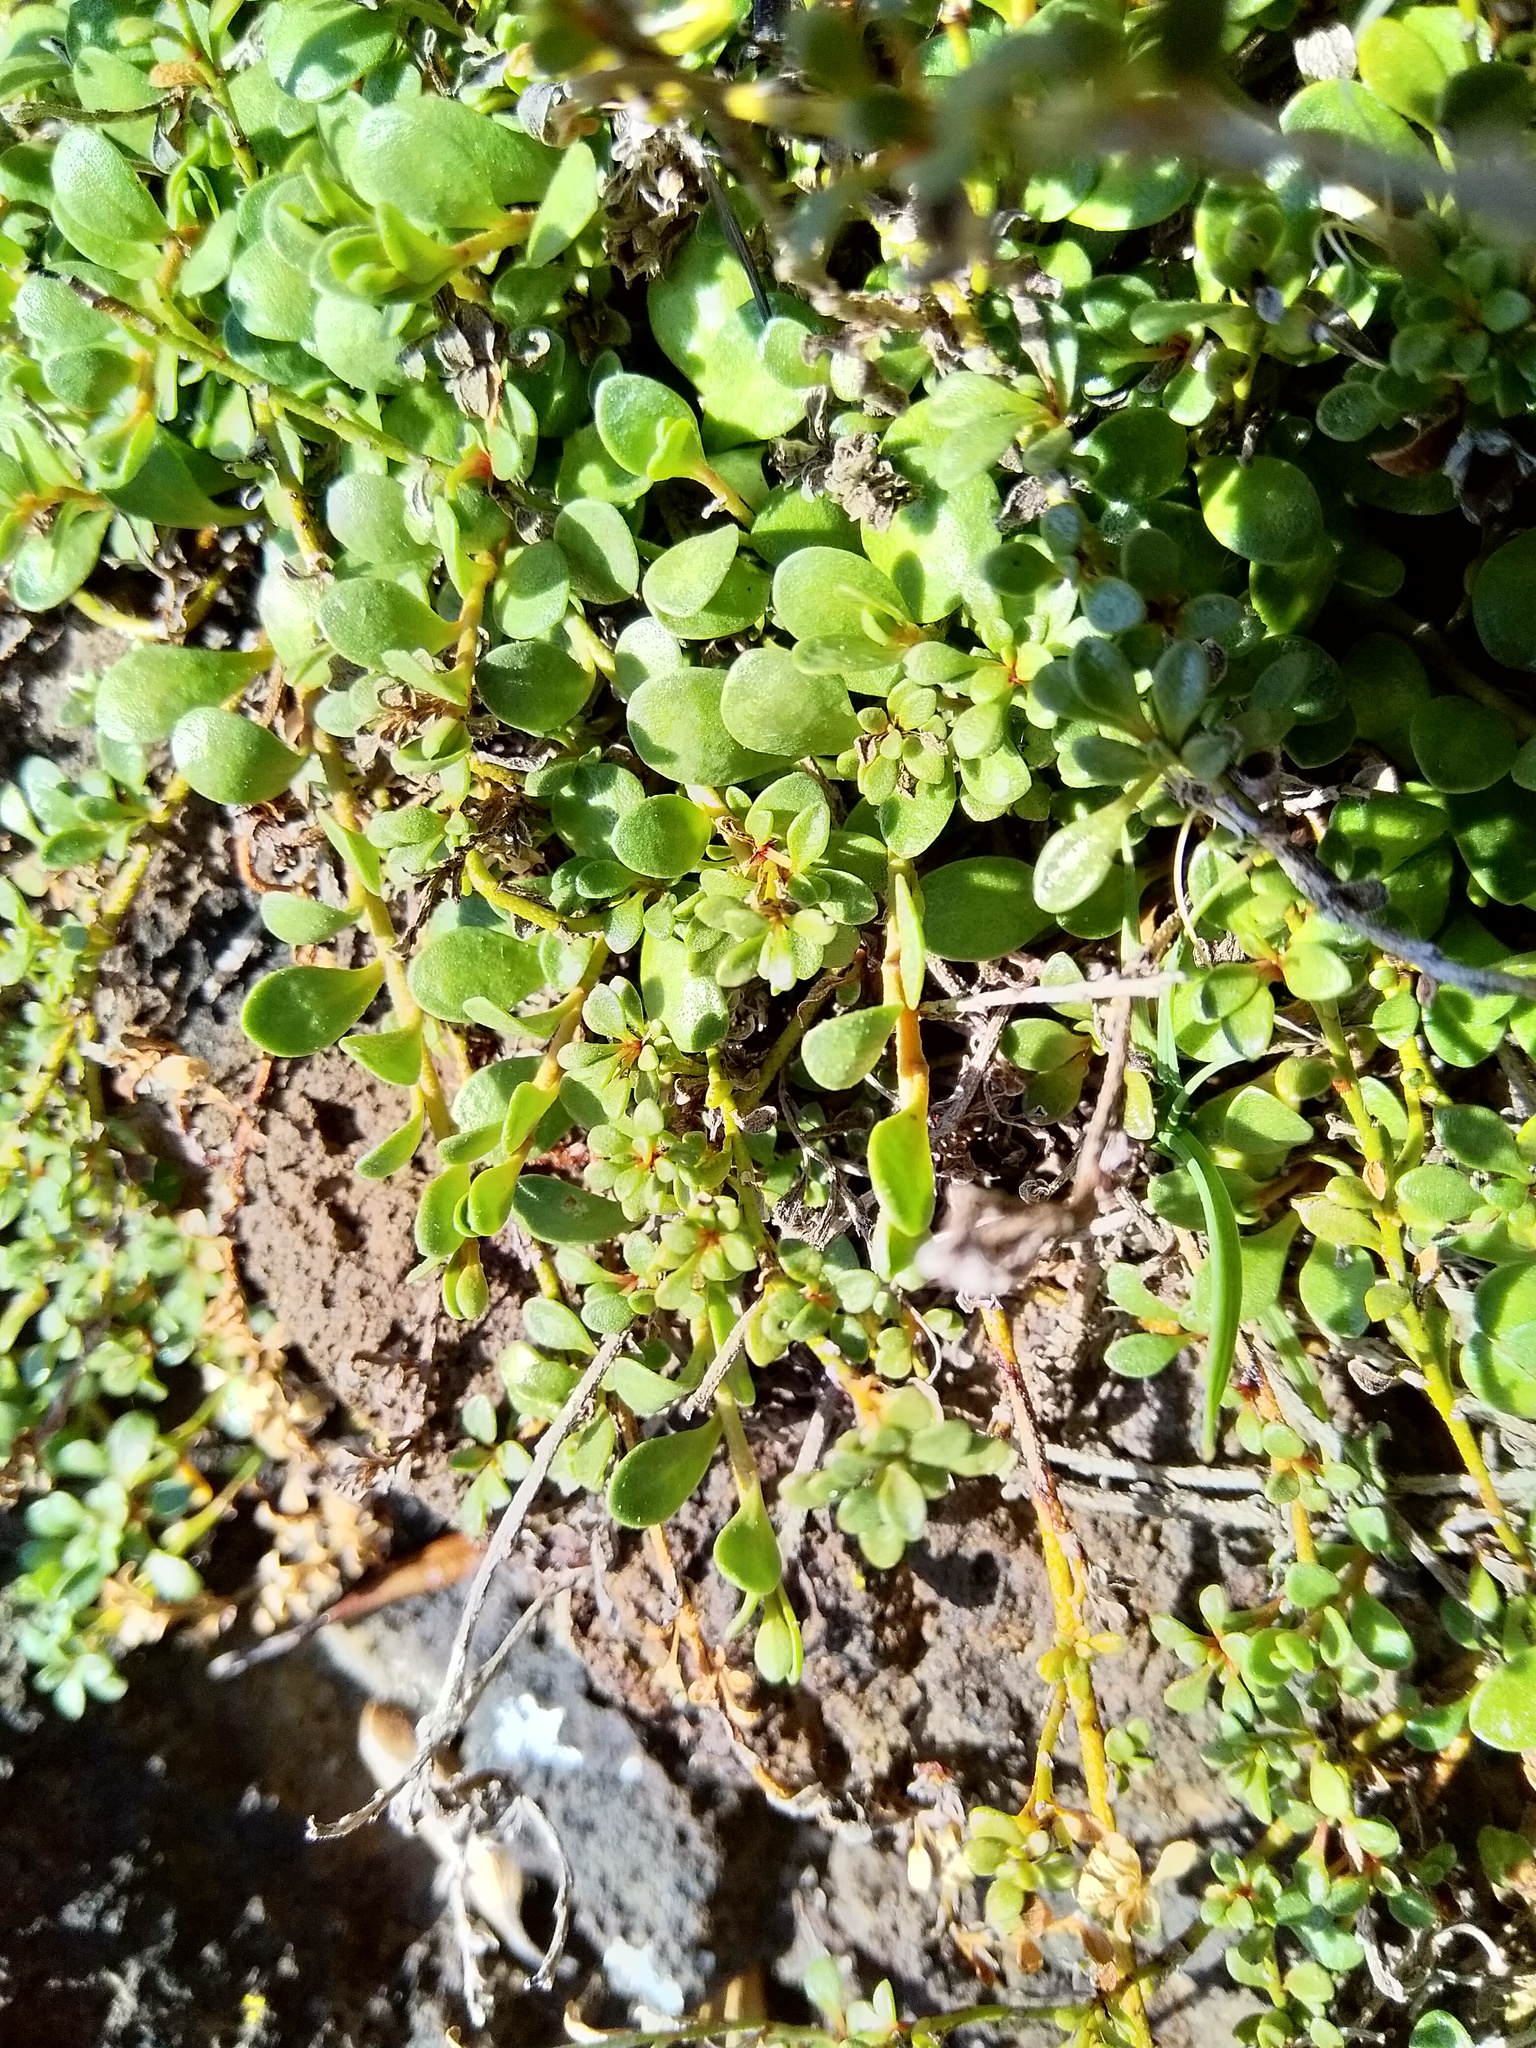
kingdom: Plantae
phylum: Tracheophyta
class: Magnoliopsida
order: Ericales
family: Primulaceae
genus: Samolus
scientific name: Samolus repens
